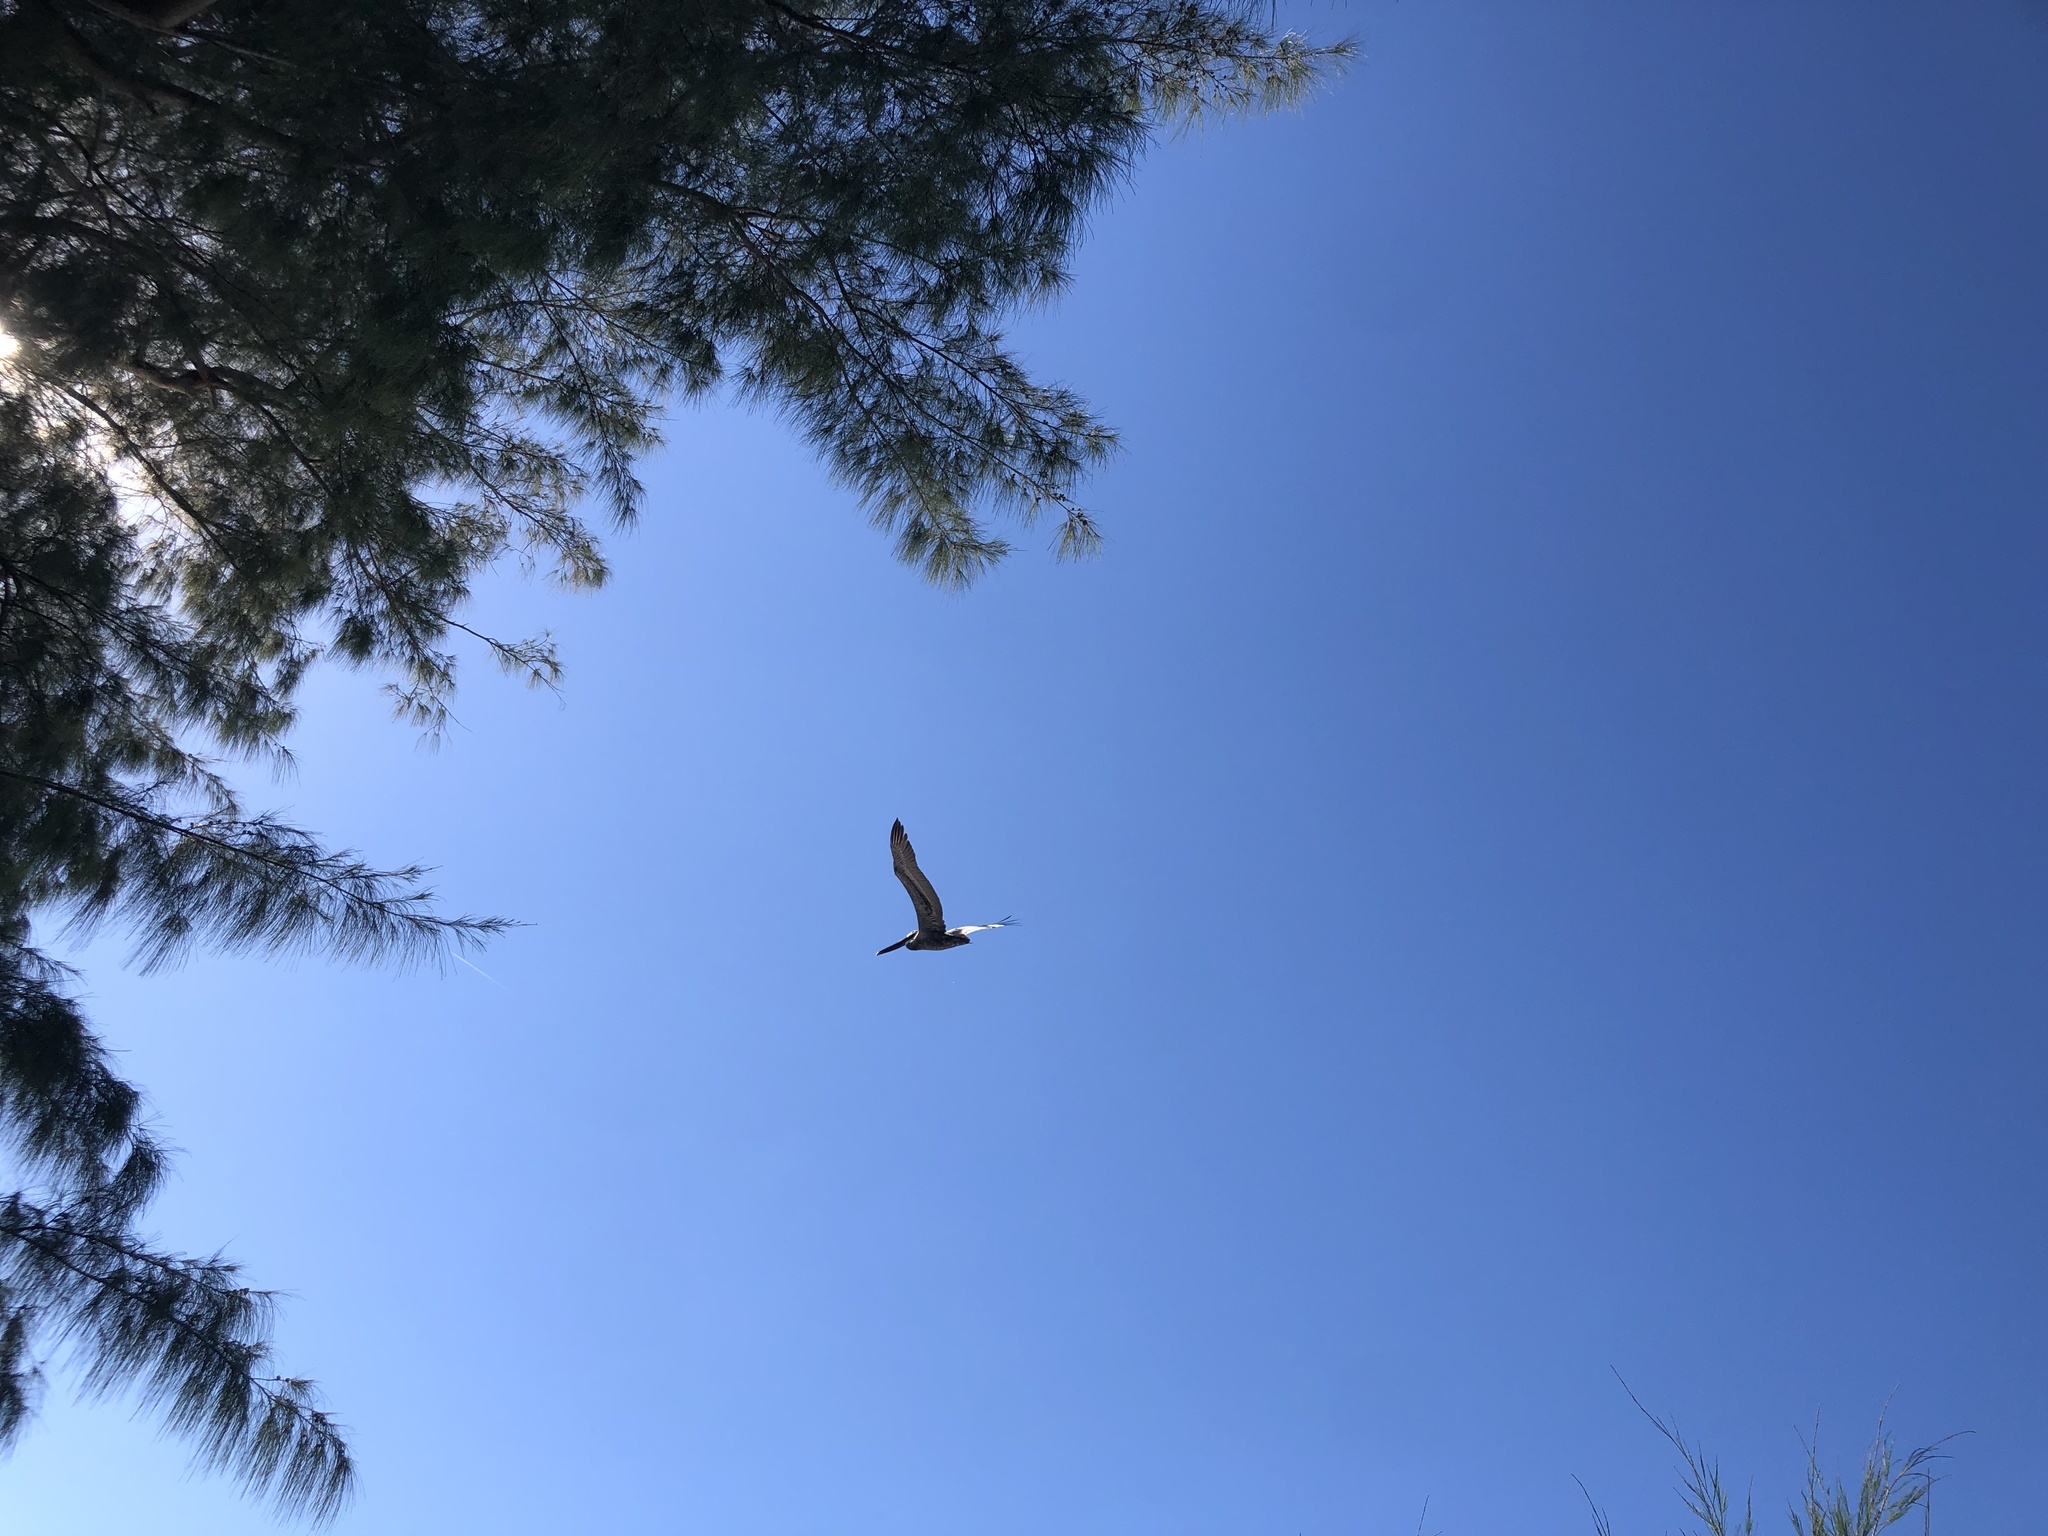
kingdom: Animalia
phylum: Chordata
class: Aves
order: Pelecaniformes
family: Pelecanidae
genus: Pelecanus
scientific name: Pelecanus occidentalis
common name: Brown pelican
